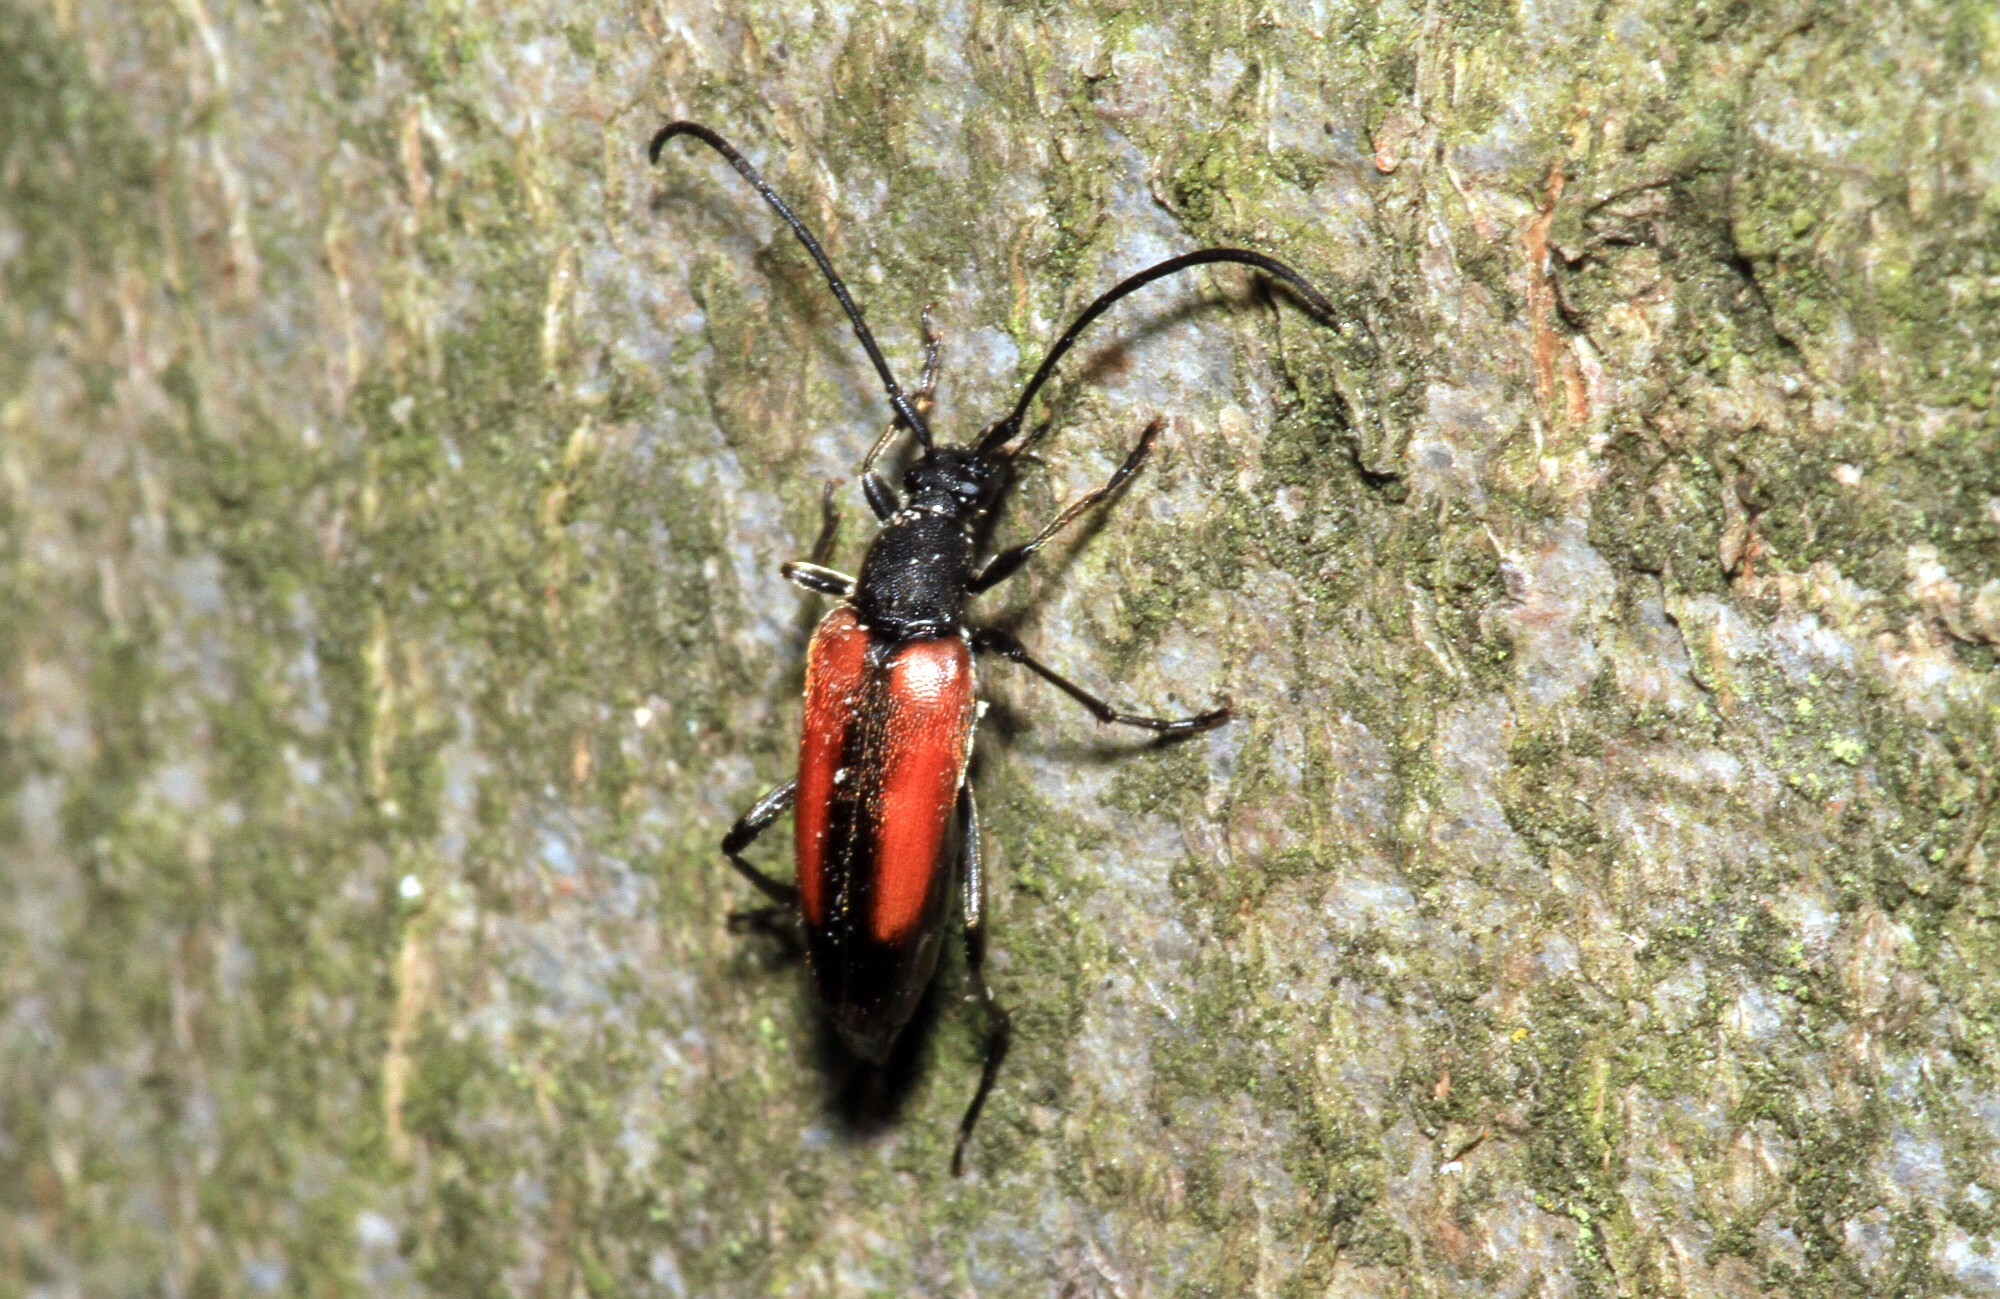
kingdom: Animalia
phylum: Arthropoda
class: Insecta
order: Coleoptera
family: Cerambycidae
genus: Stenurella
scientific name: Stenurella melanura
